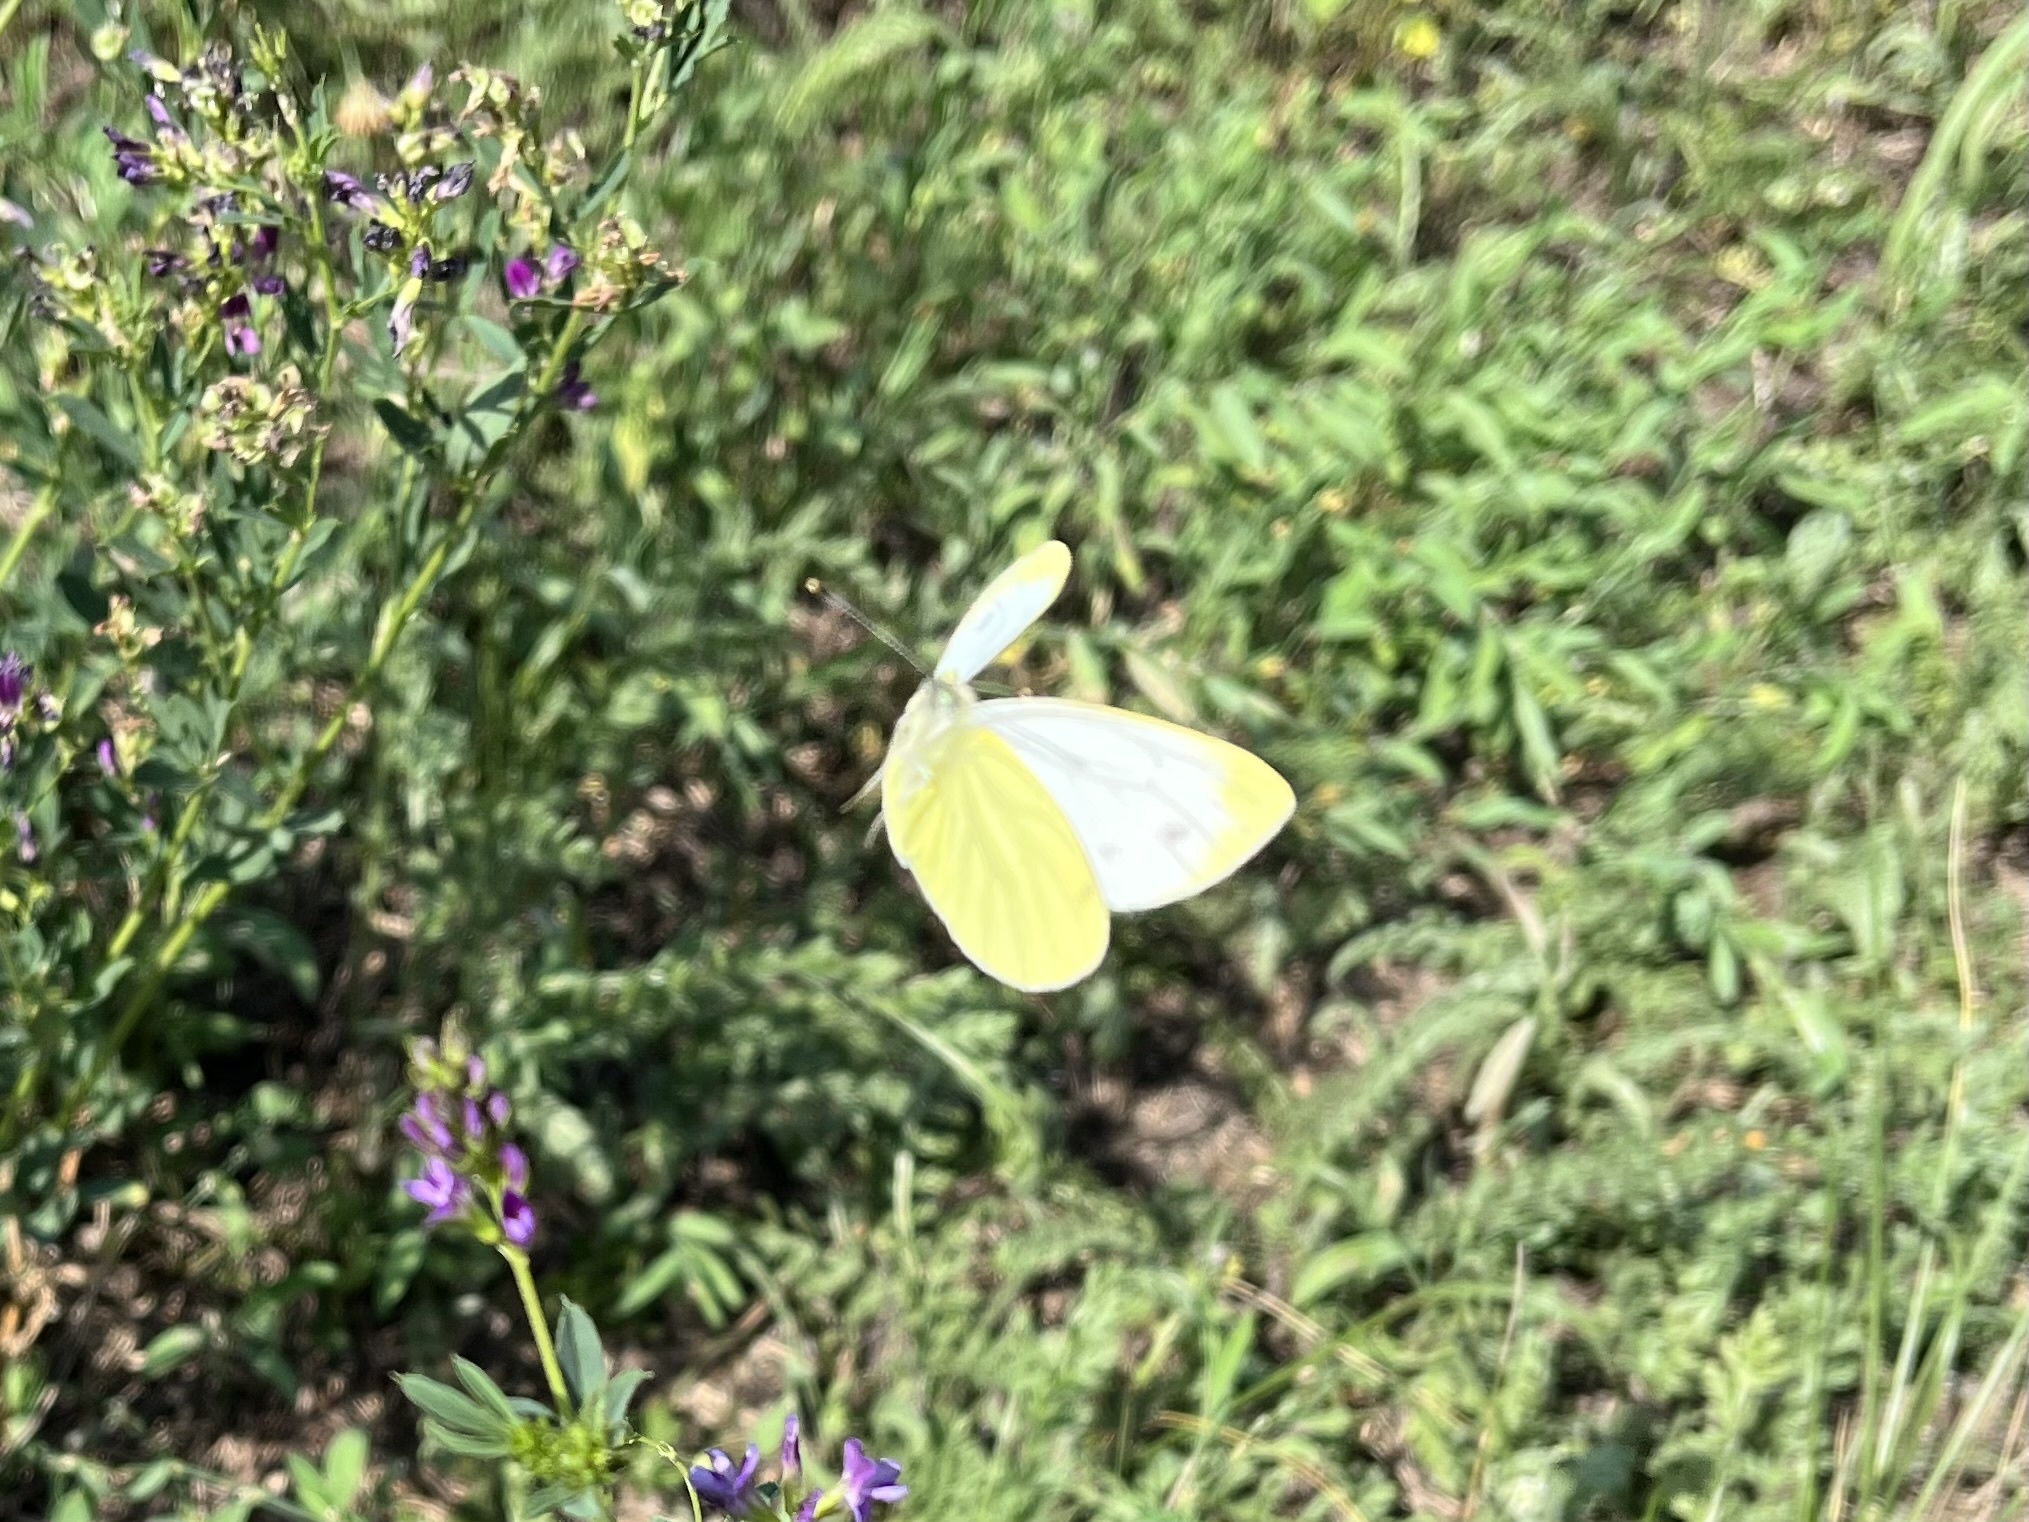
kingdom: Animalia
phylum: Arthropoda
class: Insecta
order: Lepidoptera
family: Pieridae
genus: Pieris
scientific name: Pieris napi
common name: Green-veined white
